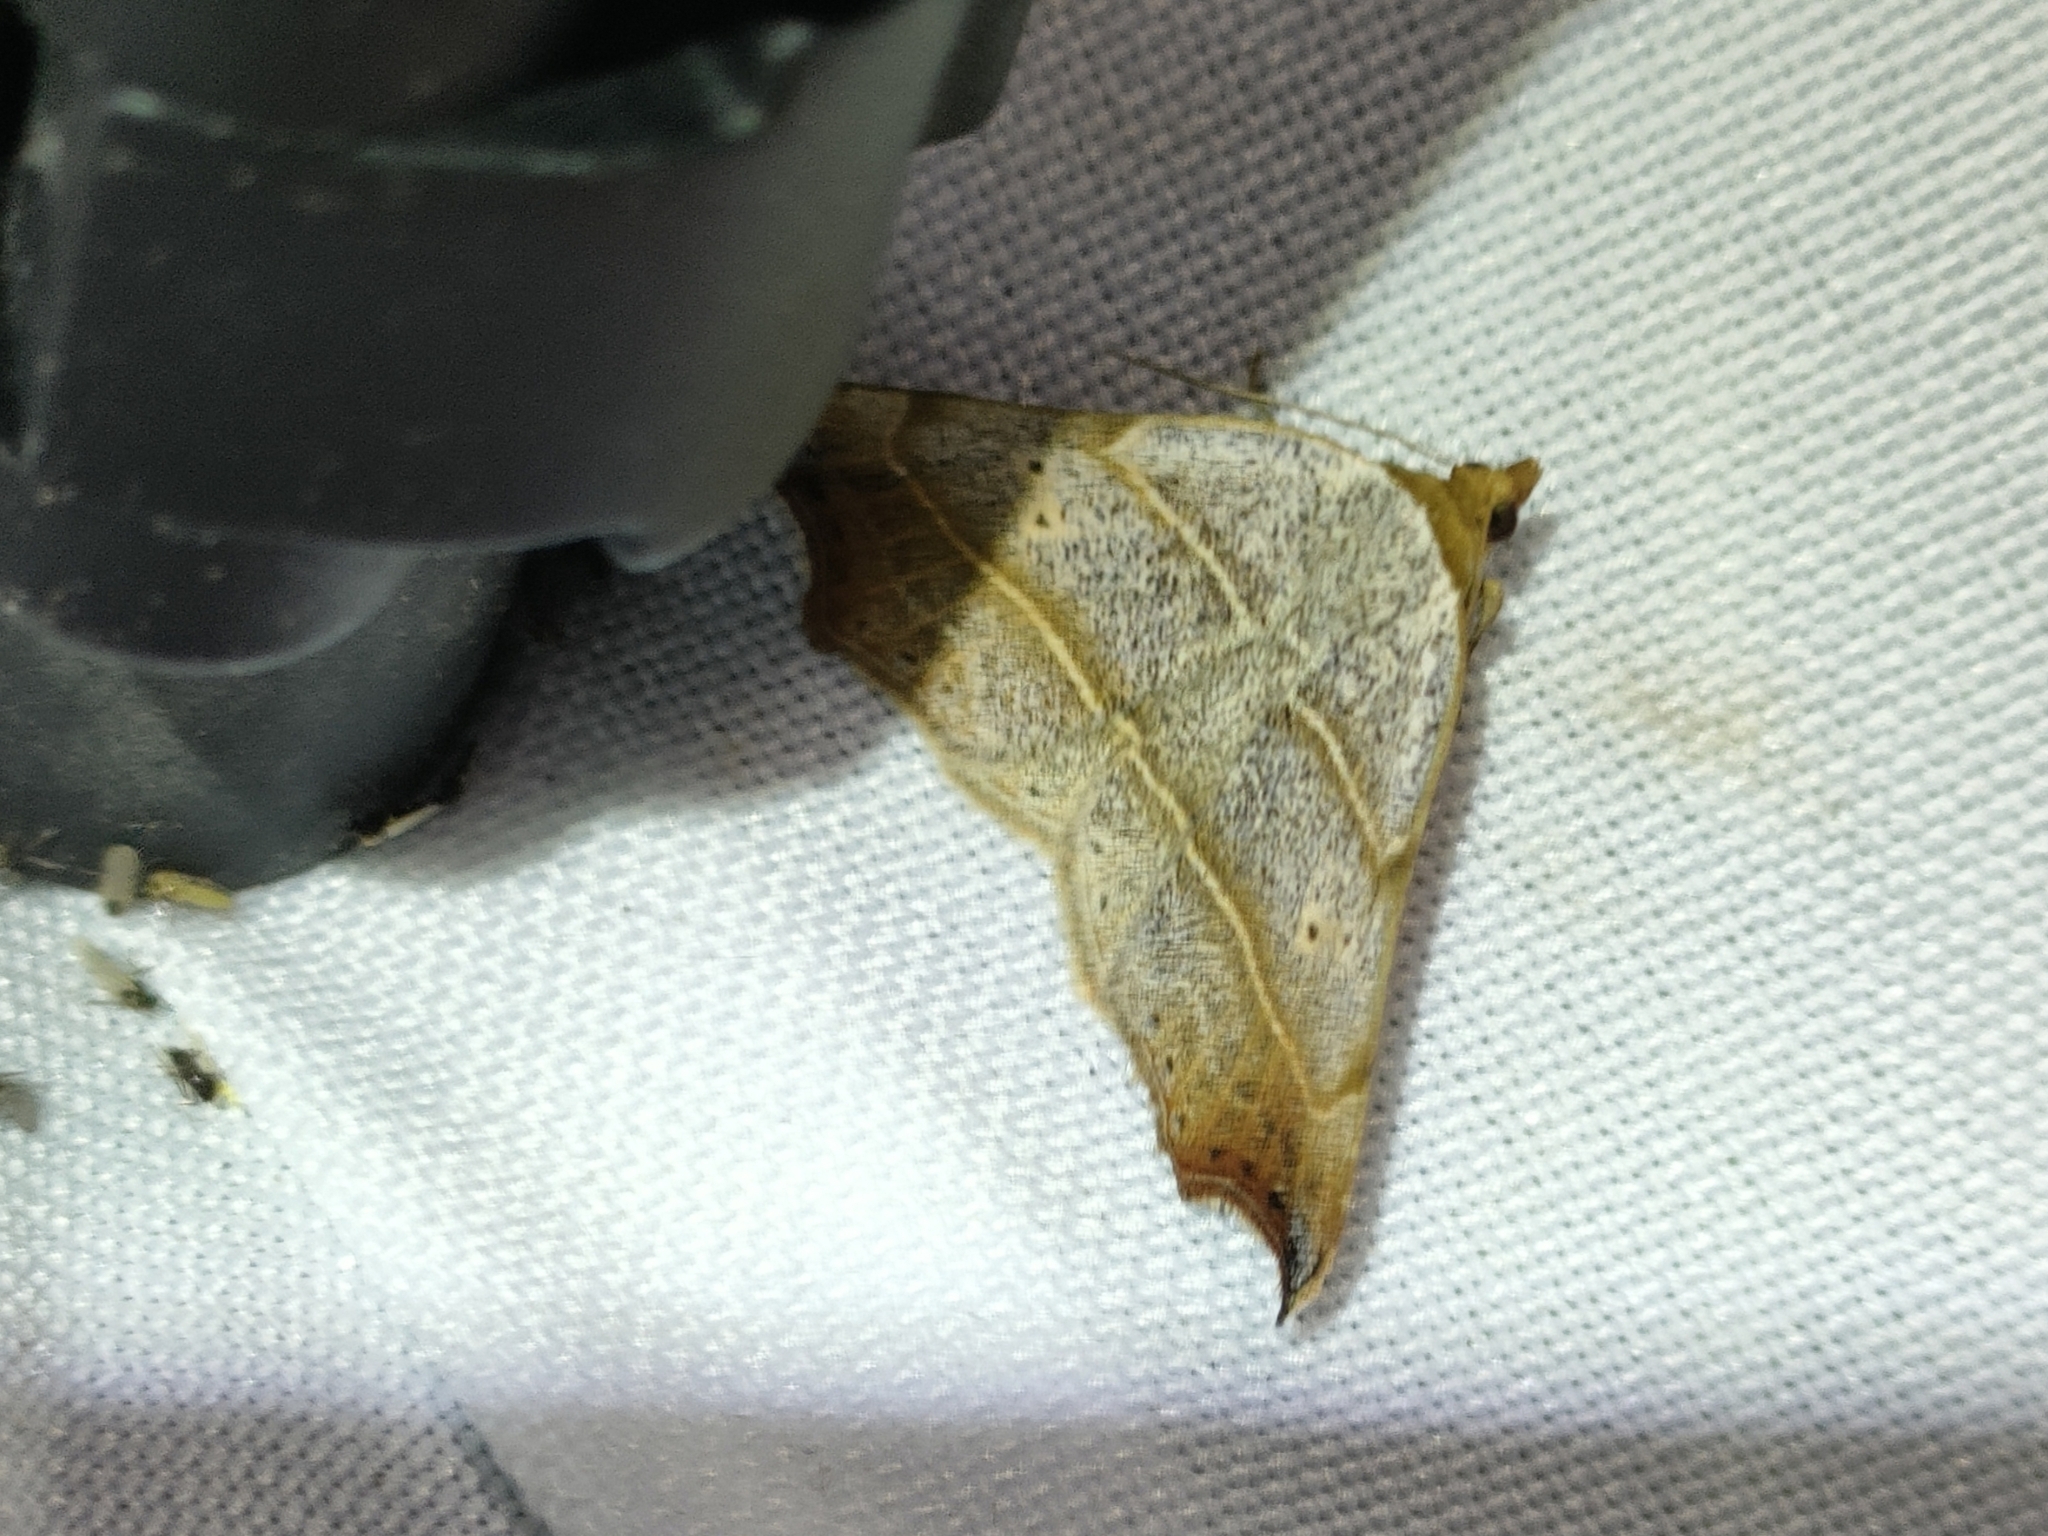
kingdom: Animalia
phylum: Arthropoda
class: Insecta
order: Lepidoptera
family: Erebidae
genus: Laspeyria
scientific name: Laspeyria flexula
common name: Beautiful hook-tip
